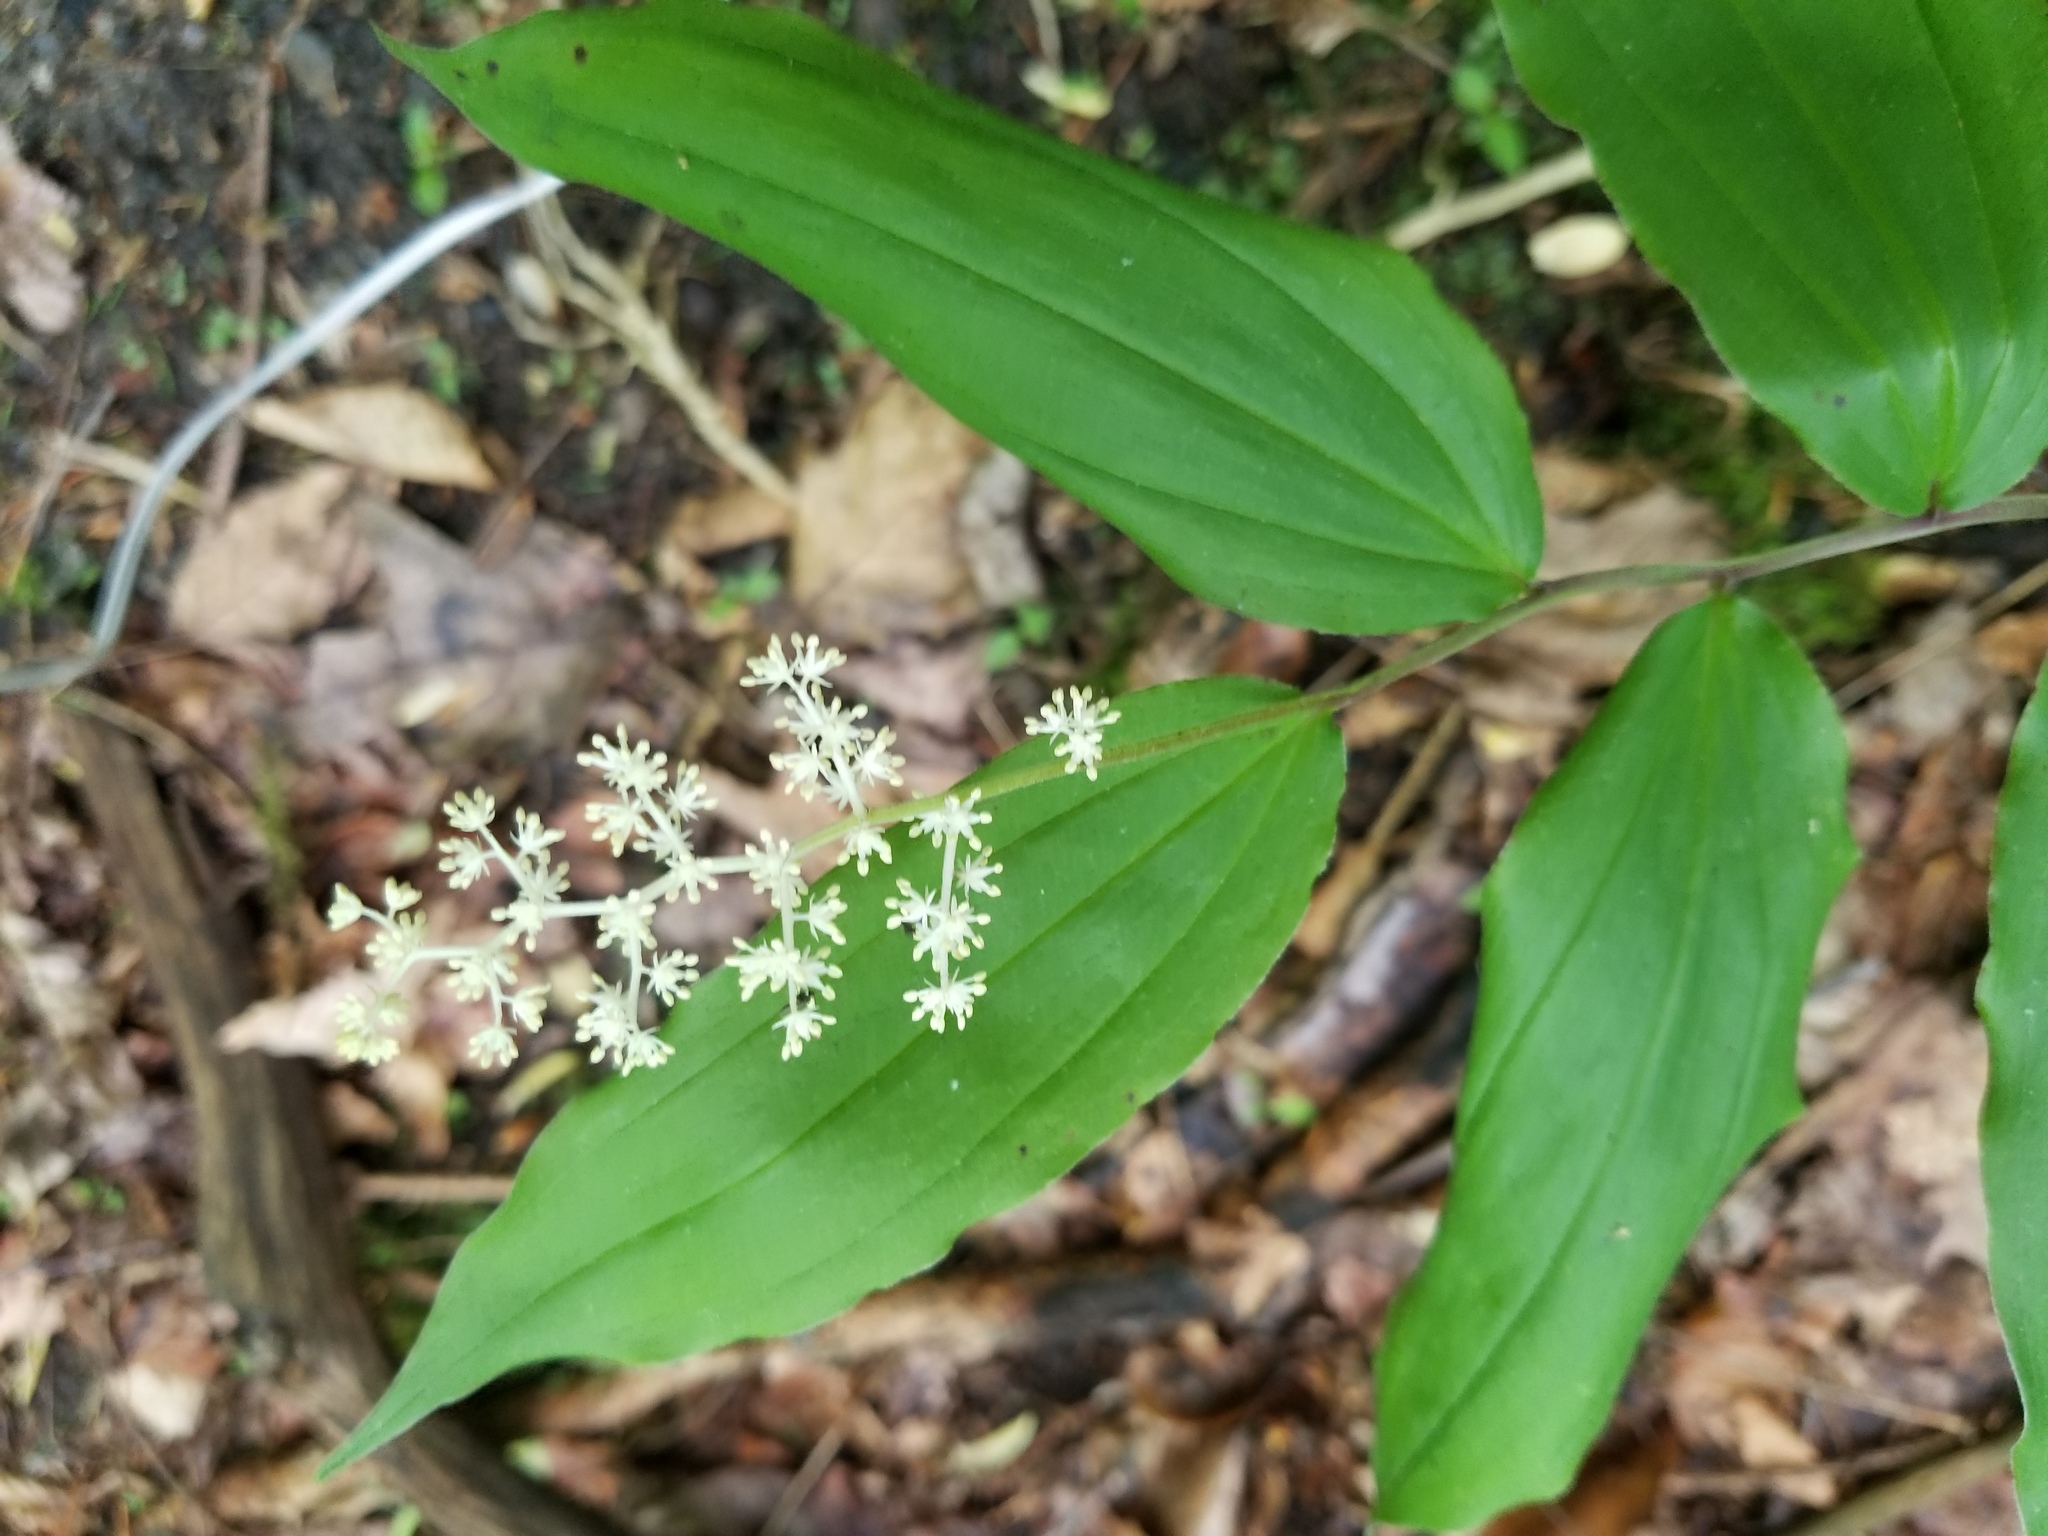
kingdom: Plantae
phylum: Tracheophyta
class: Liliopsida
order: Asparagales
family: Asparagaceae
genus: Maianthemum
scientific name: Maianthemum racemosum
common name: False spikenard
